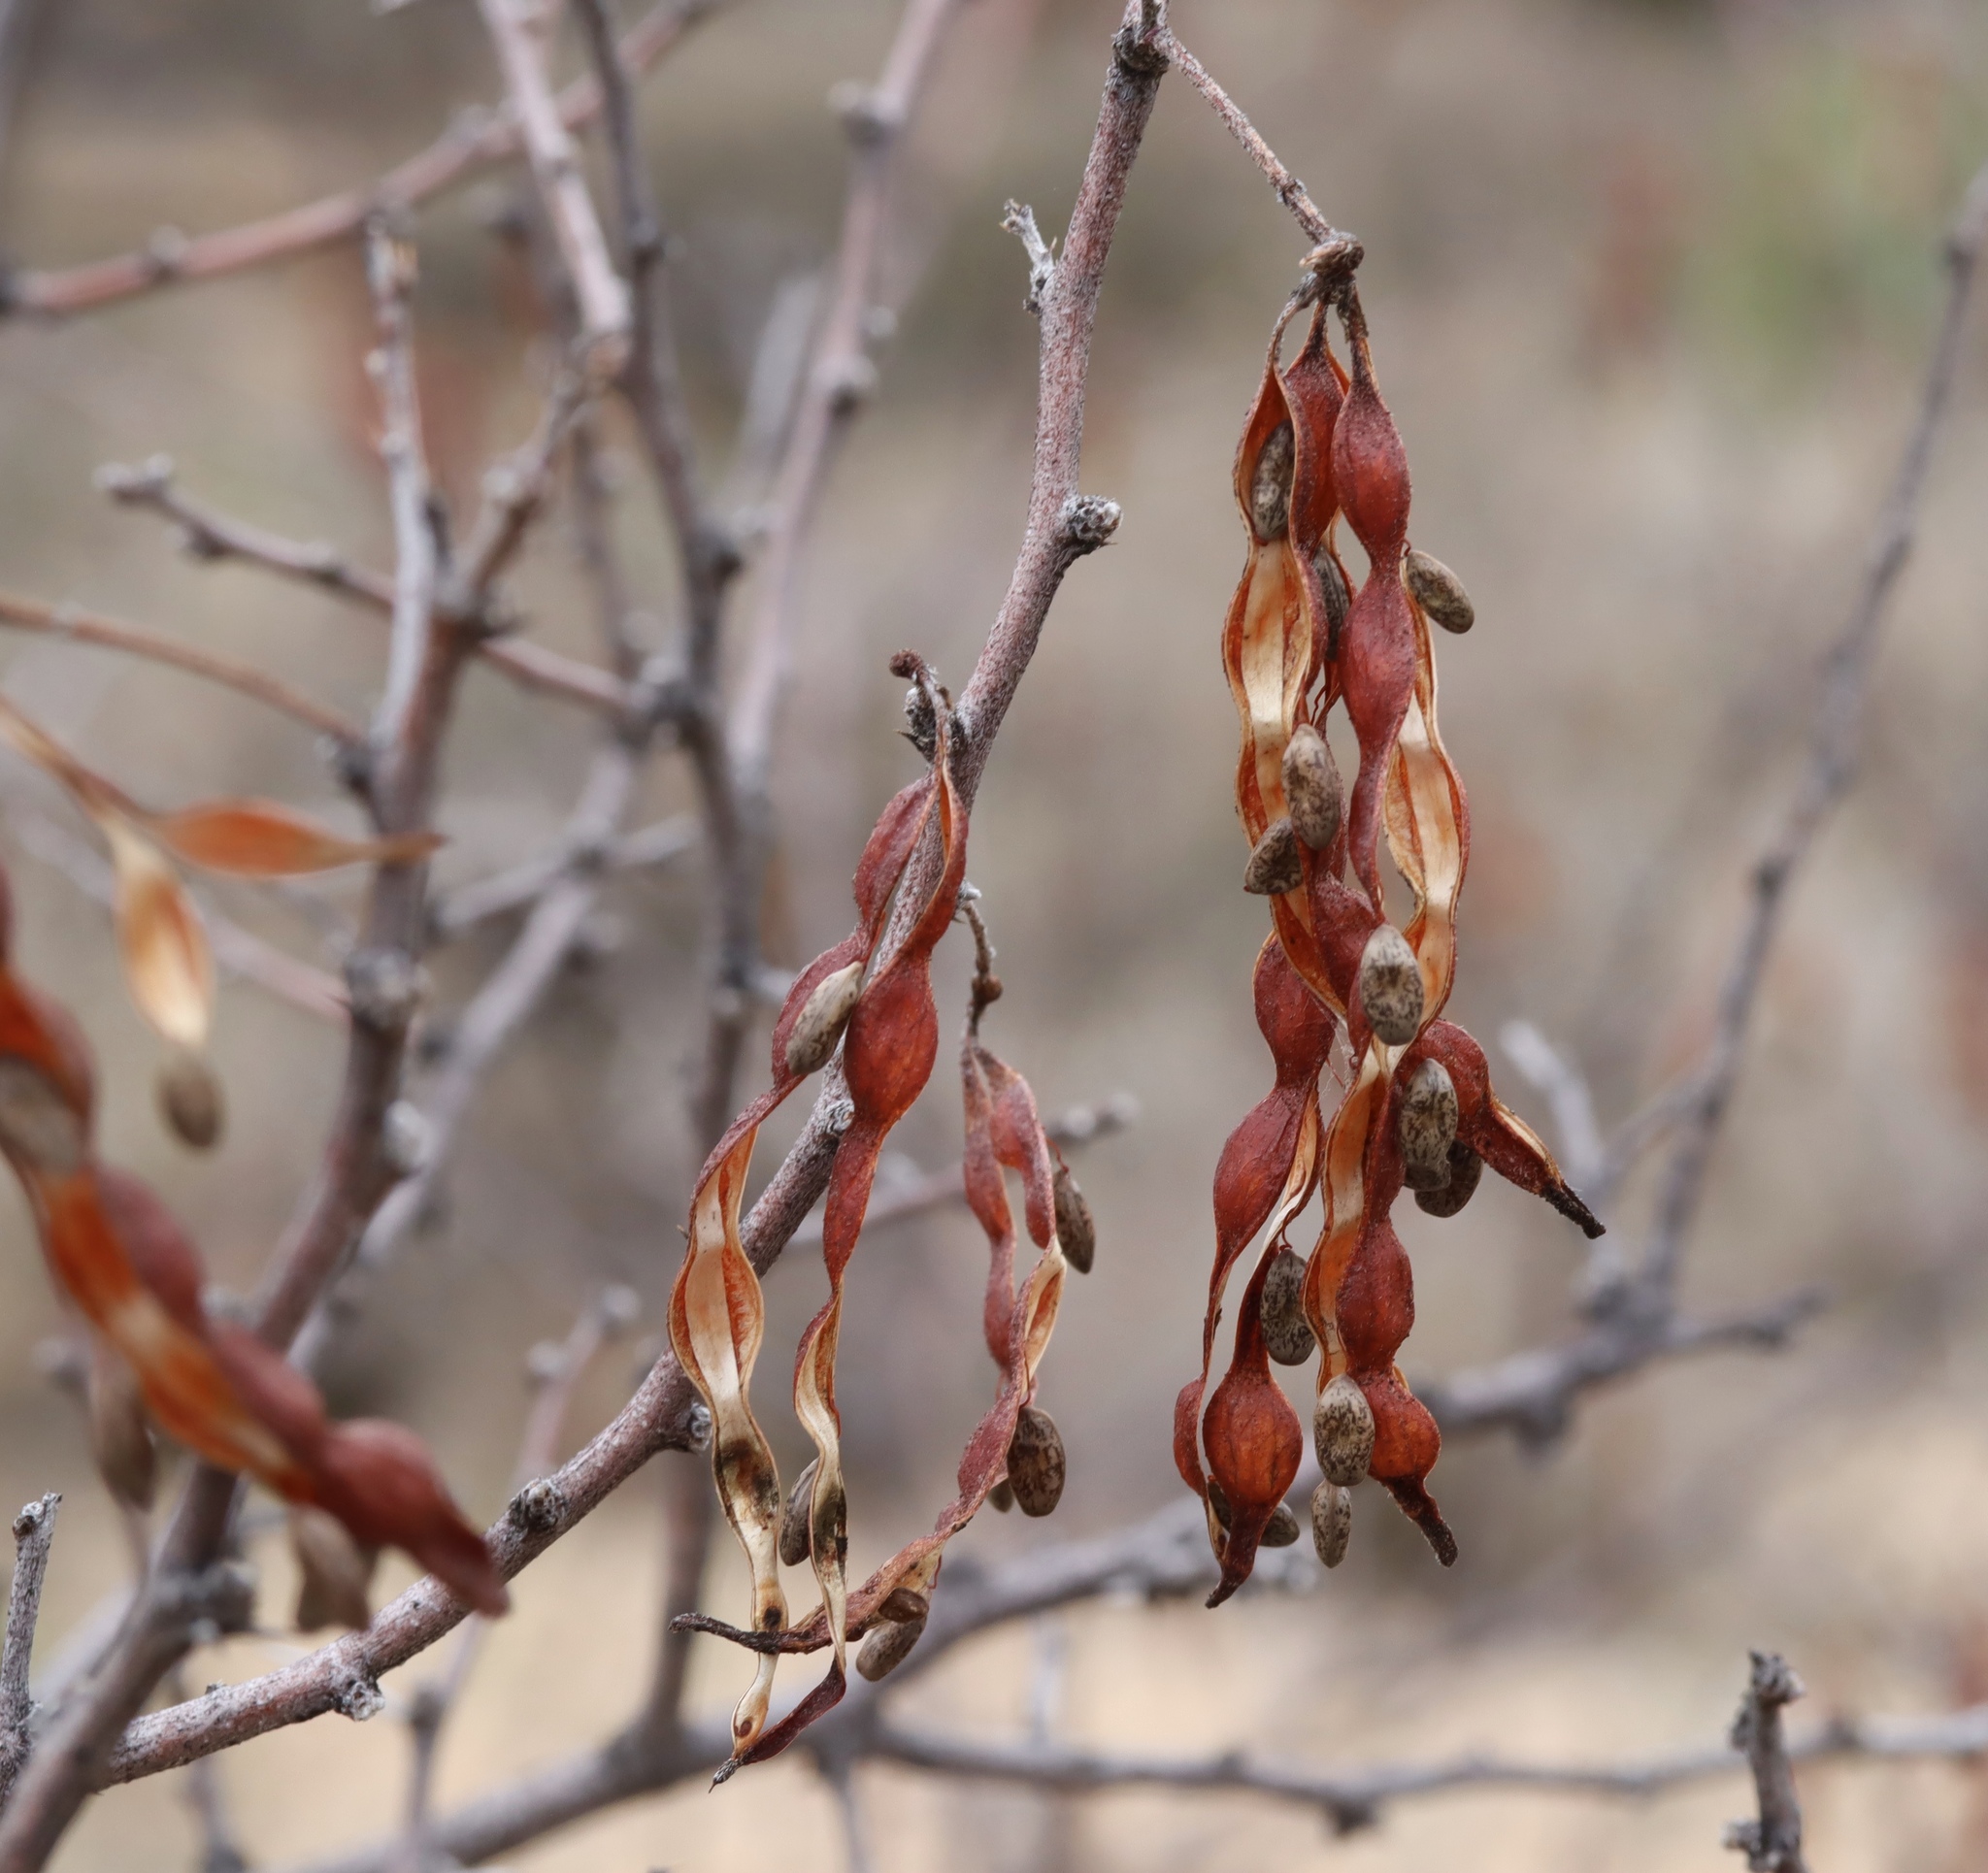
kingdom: Plantae
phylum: Tracheophyta
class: Magnoliopsida
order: Fabales
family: Fabaceae
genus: Vachellia
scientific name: Vachellia constricta
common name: Mescat acacia
